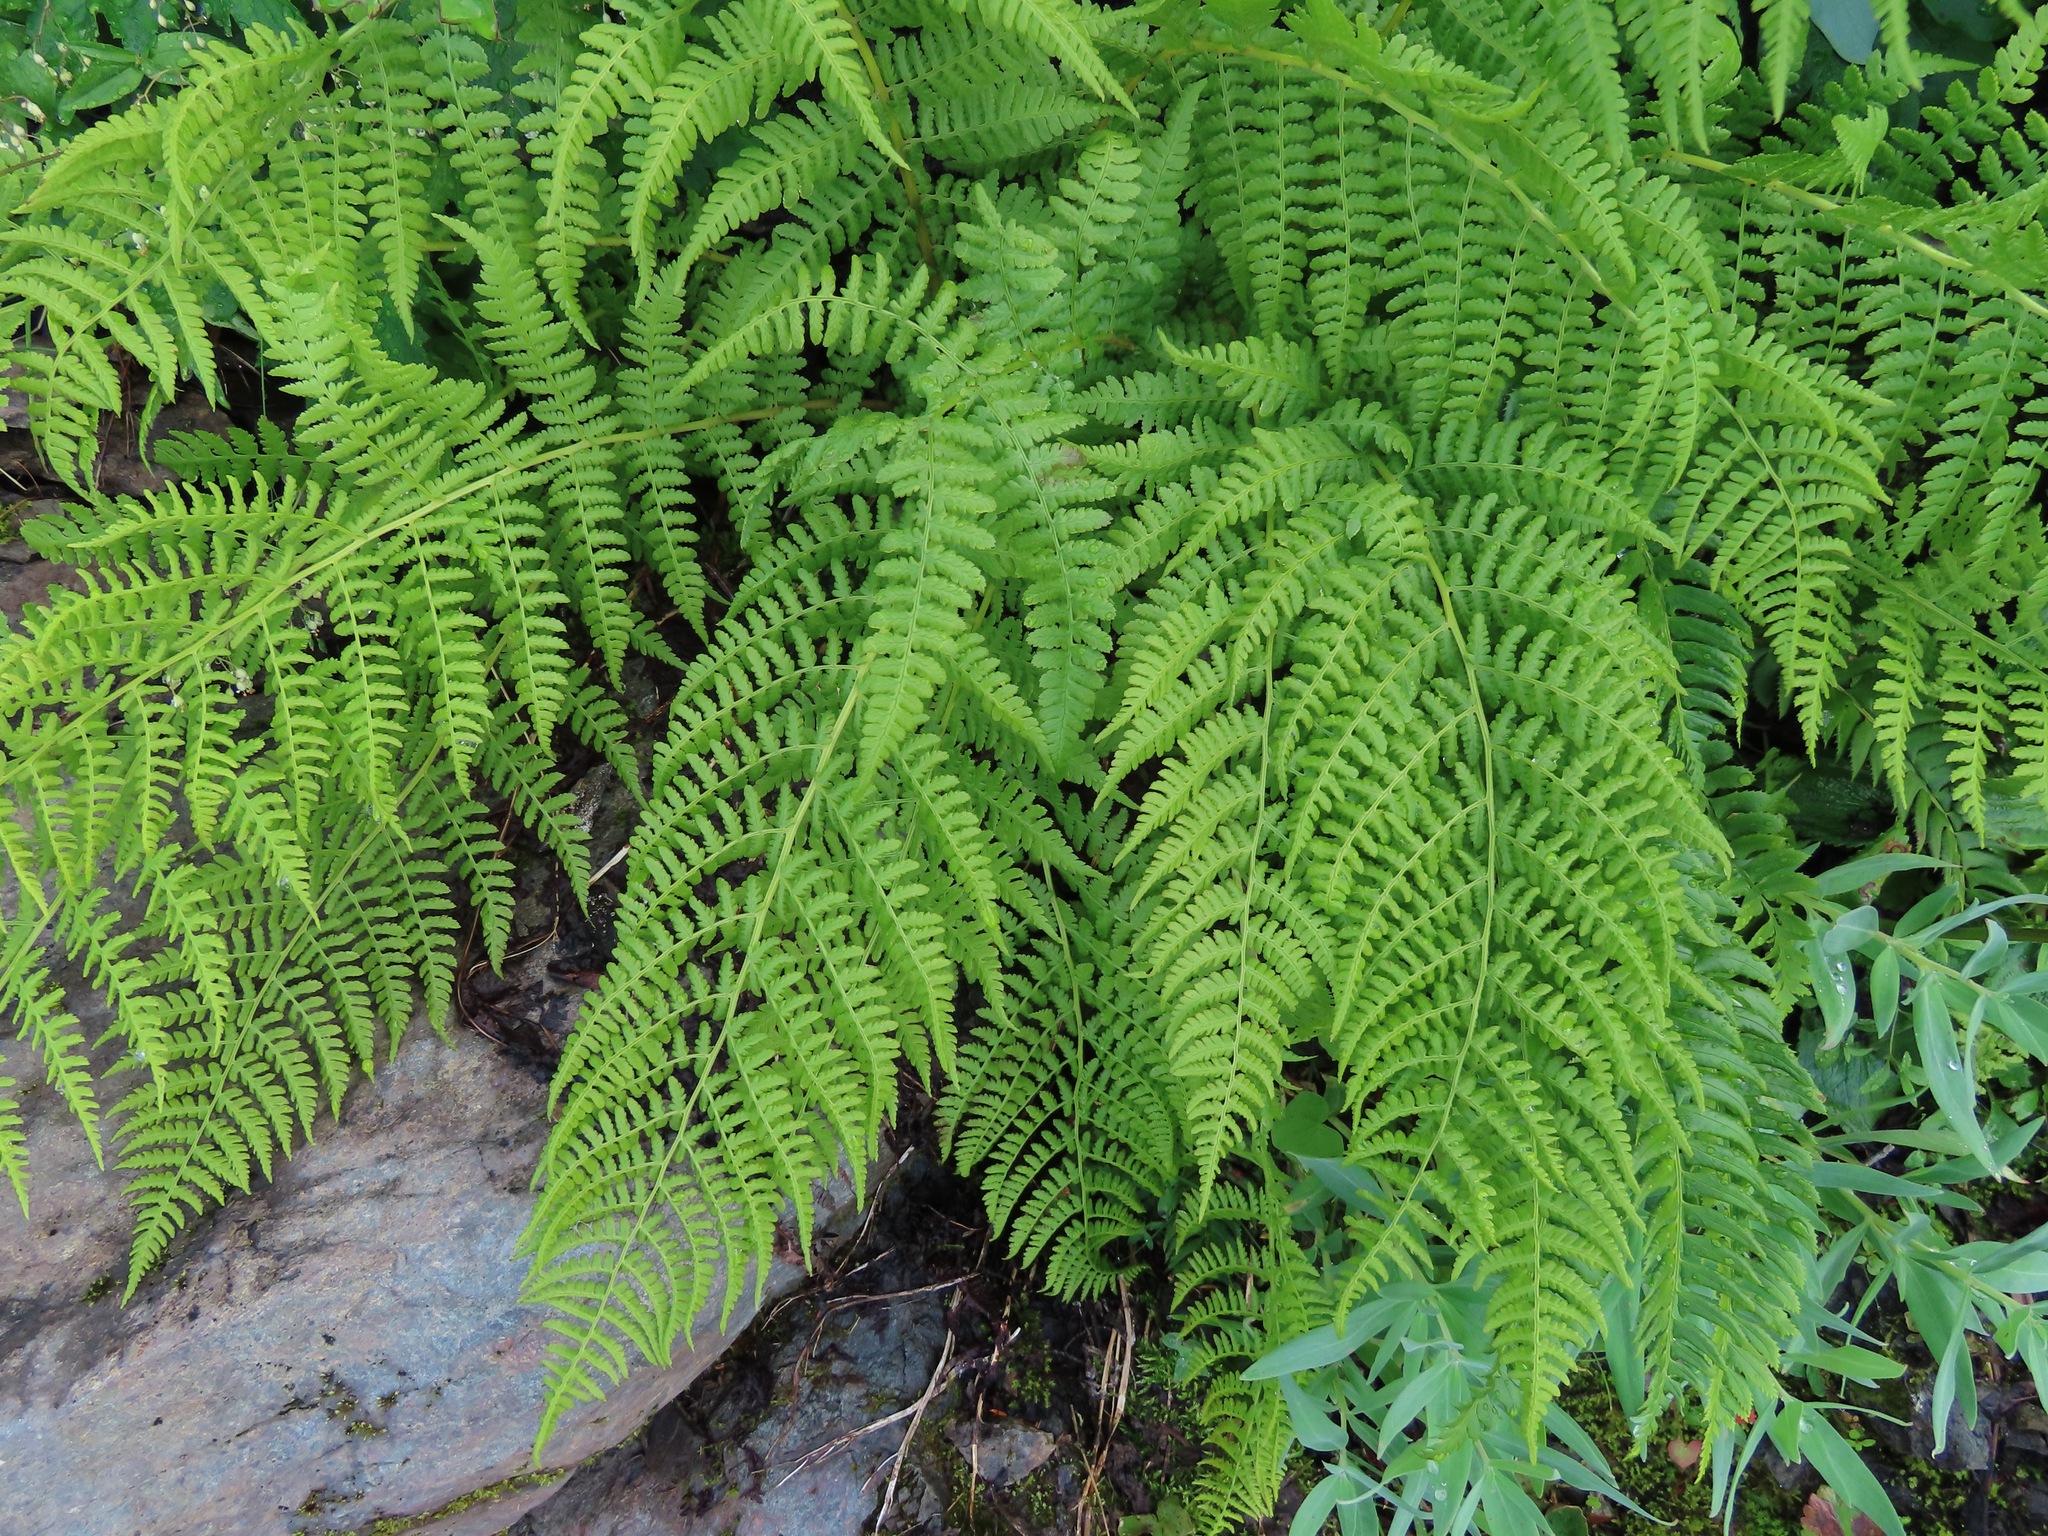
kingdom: Plantae
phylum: Tracheophyta
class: Polypodiopsida
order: Polypodiales
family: Athyriaceae
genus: Athyrium
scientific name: Athyrium filix-femina
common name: Lady fern
